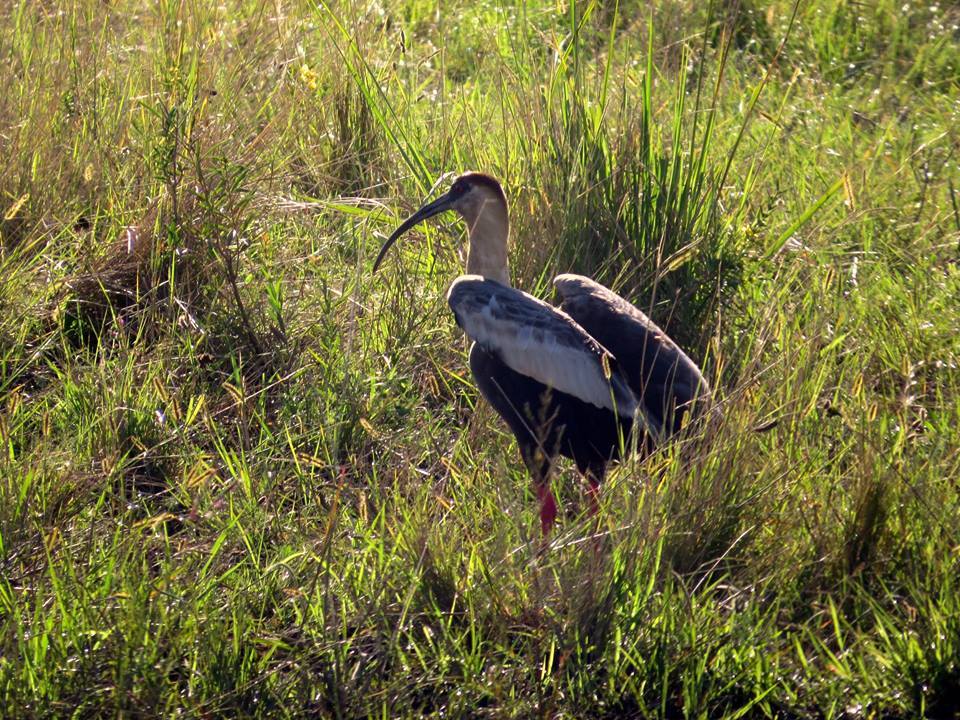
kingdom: Animalia
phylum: Chordata
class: Aves
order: Pelecaniformes
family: Threskiornithidae
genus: Theristicus
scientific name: Theristicus caudatus
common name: Buff-necked ibis
